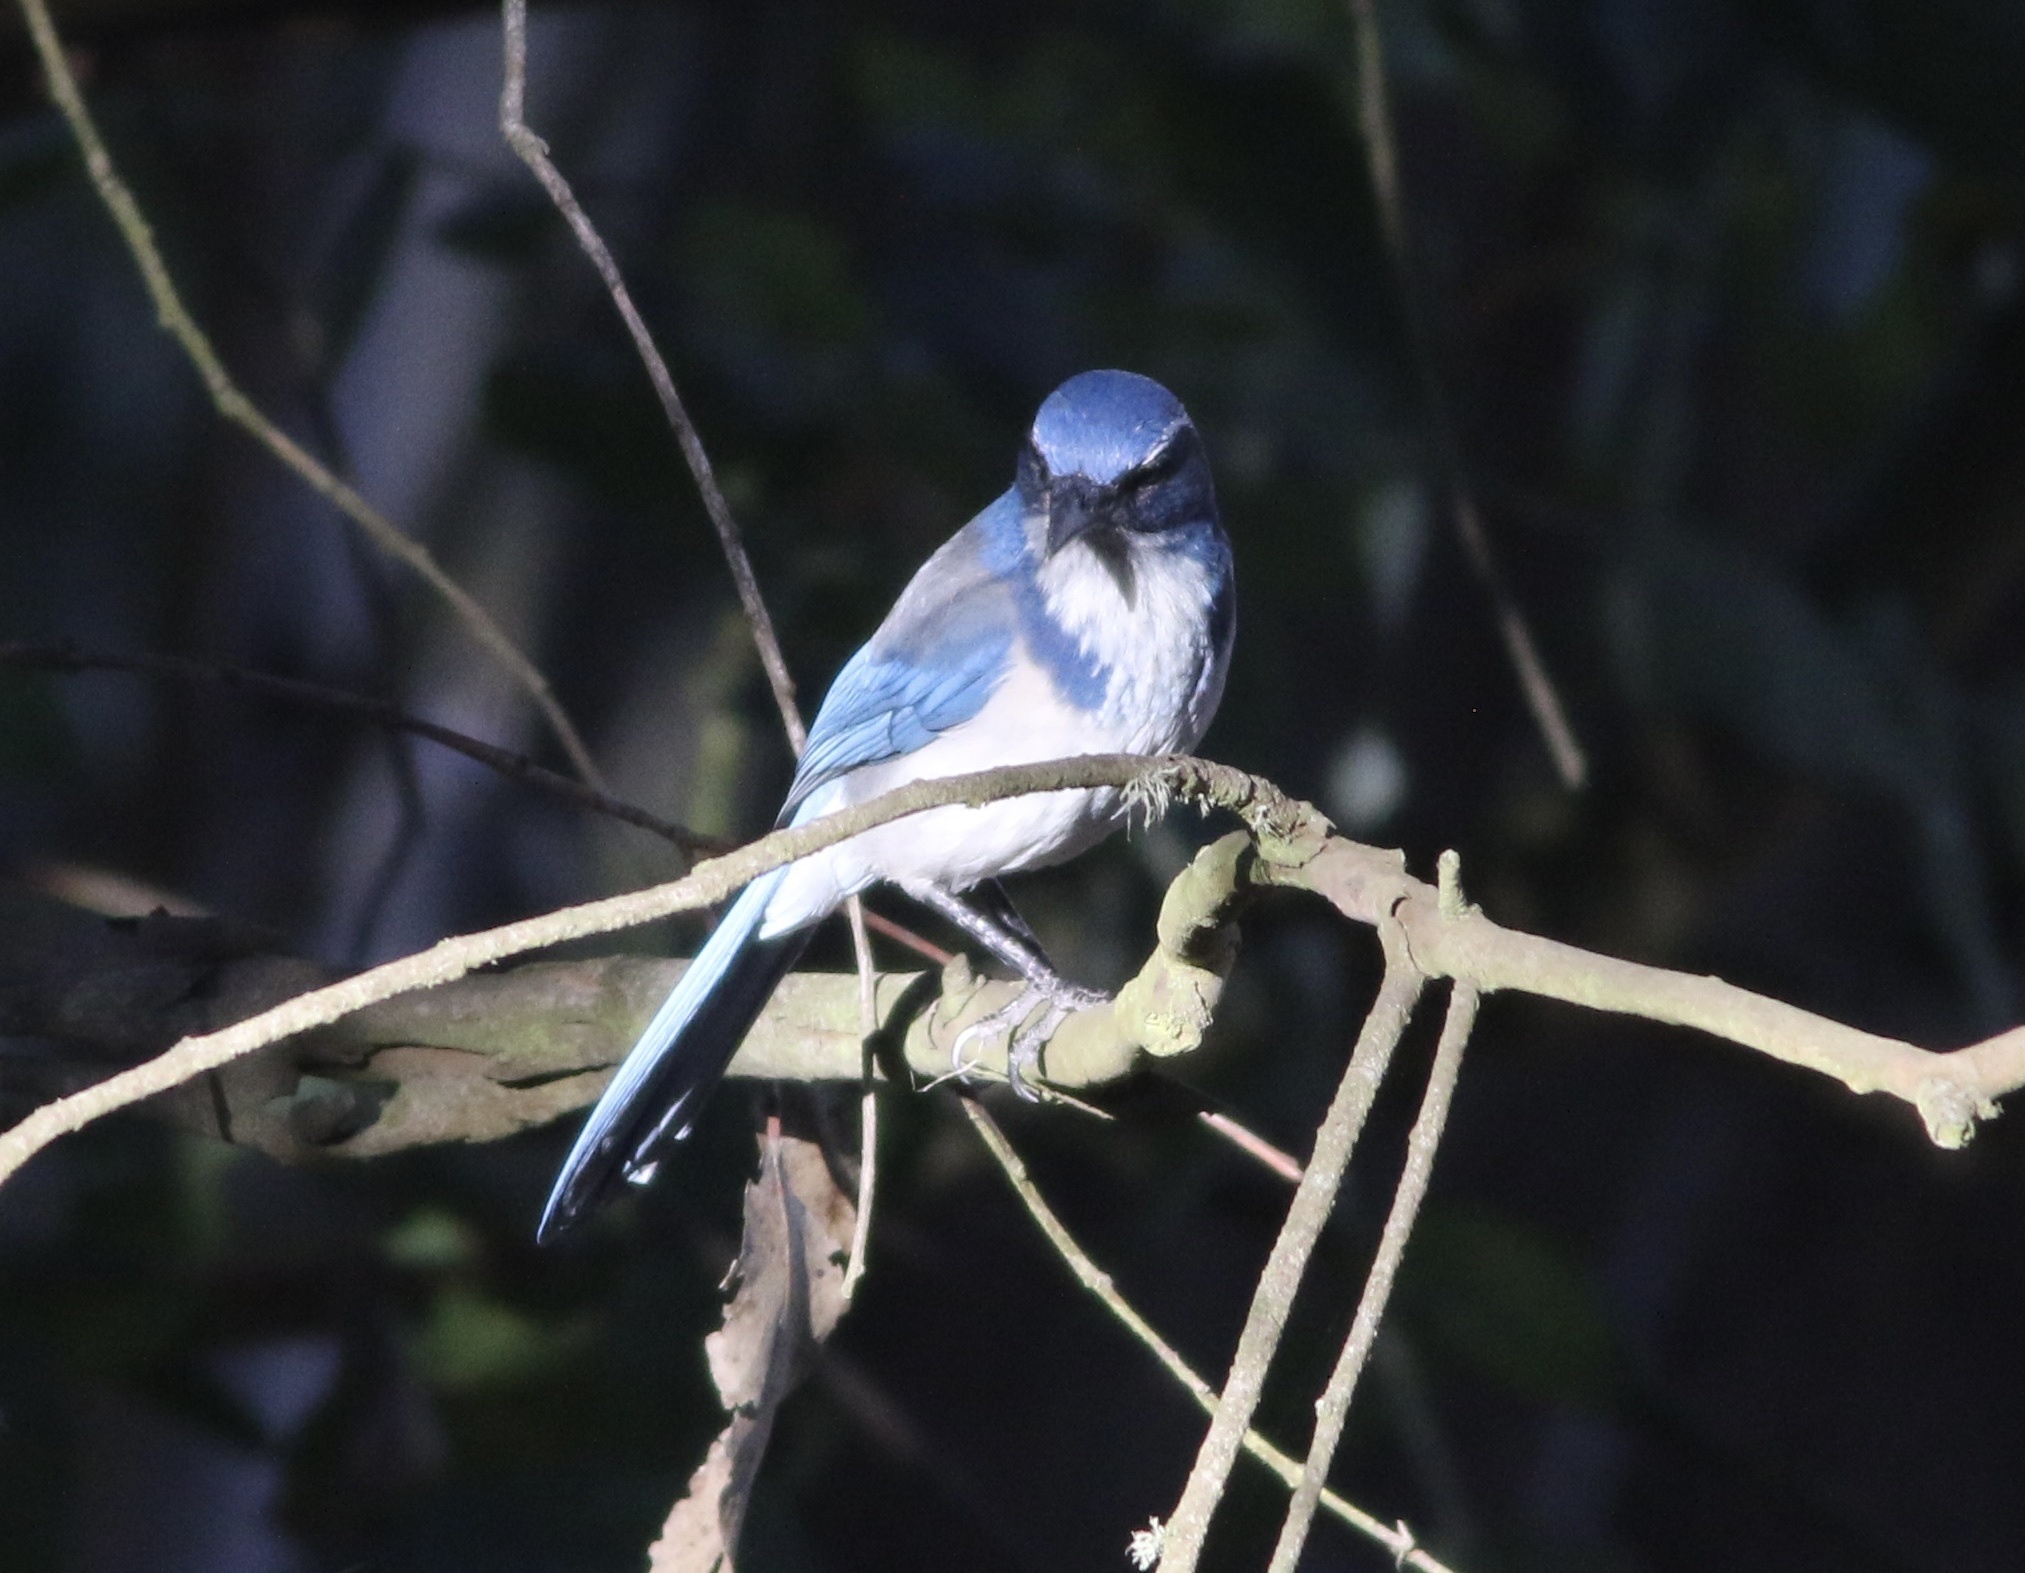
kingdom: Animalia
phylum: Chordata
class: Aves
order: Passeriformes
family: Corvidae
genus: Aphelocoma
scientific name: Aphelocoma californica
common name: California scrub-jay
